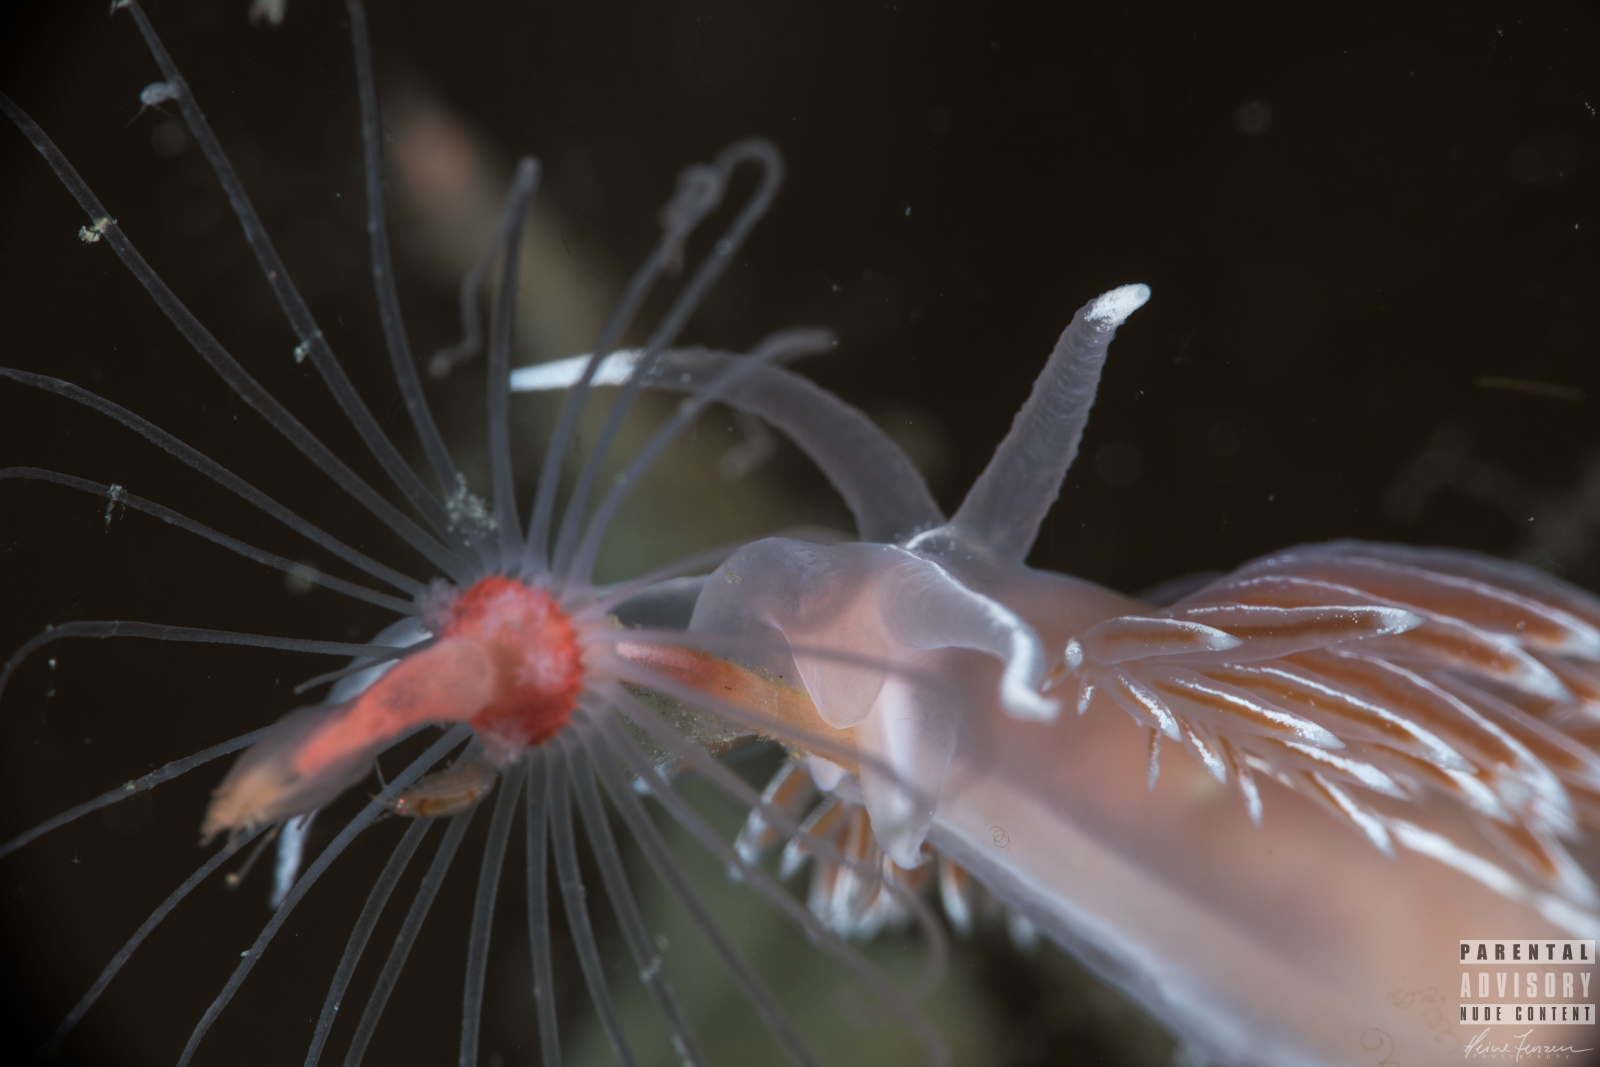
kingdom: Animalia
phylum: Mollusca
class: Gastropoda
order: Nudibranchia
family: Coryphellidae
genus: Coryphella
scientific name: Coryphella lineata
